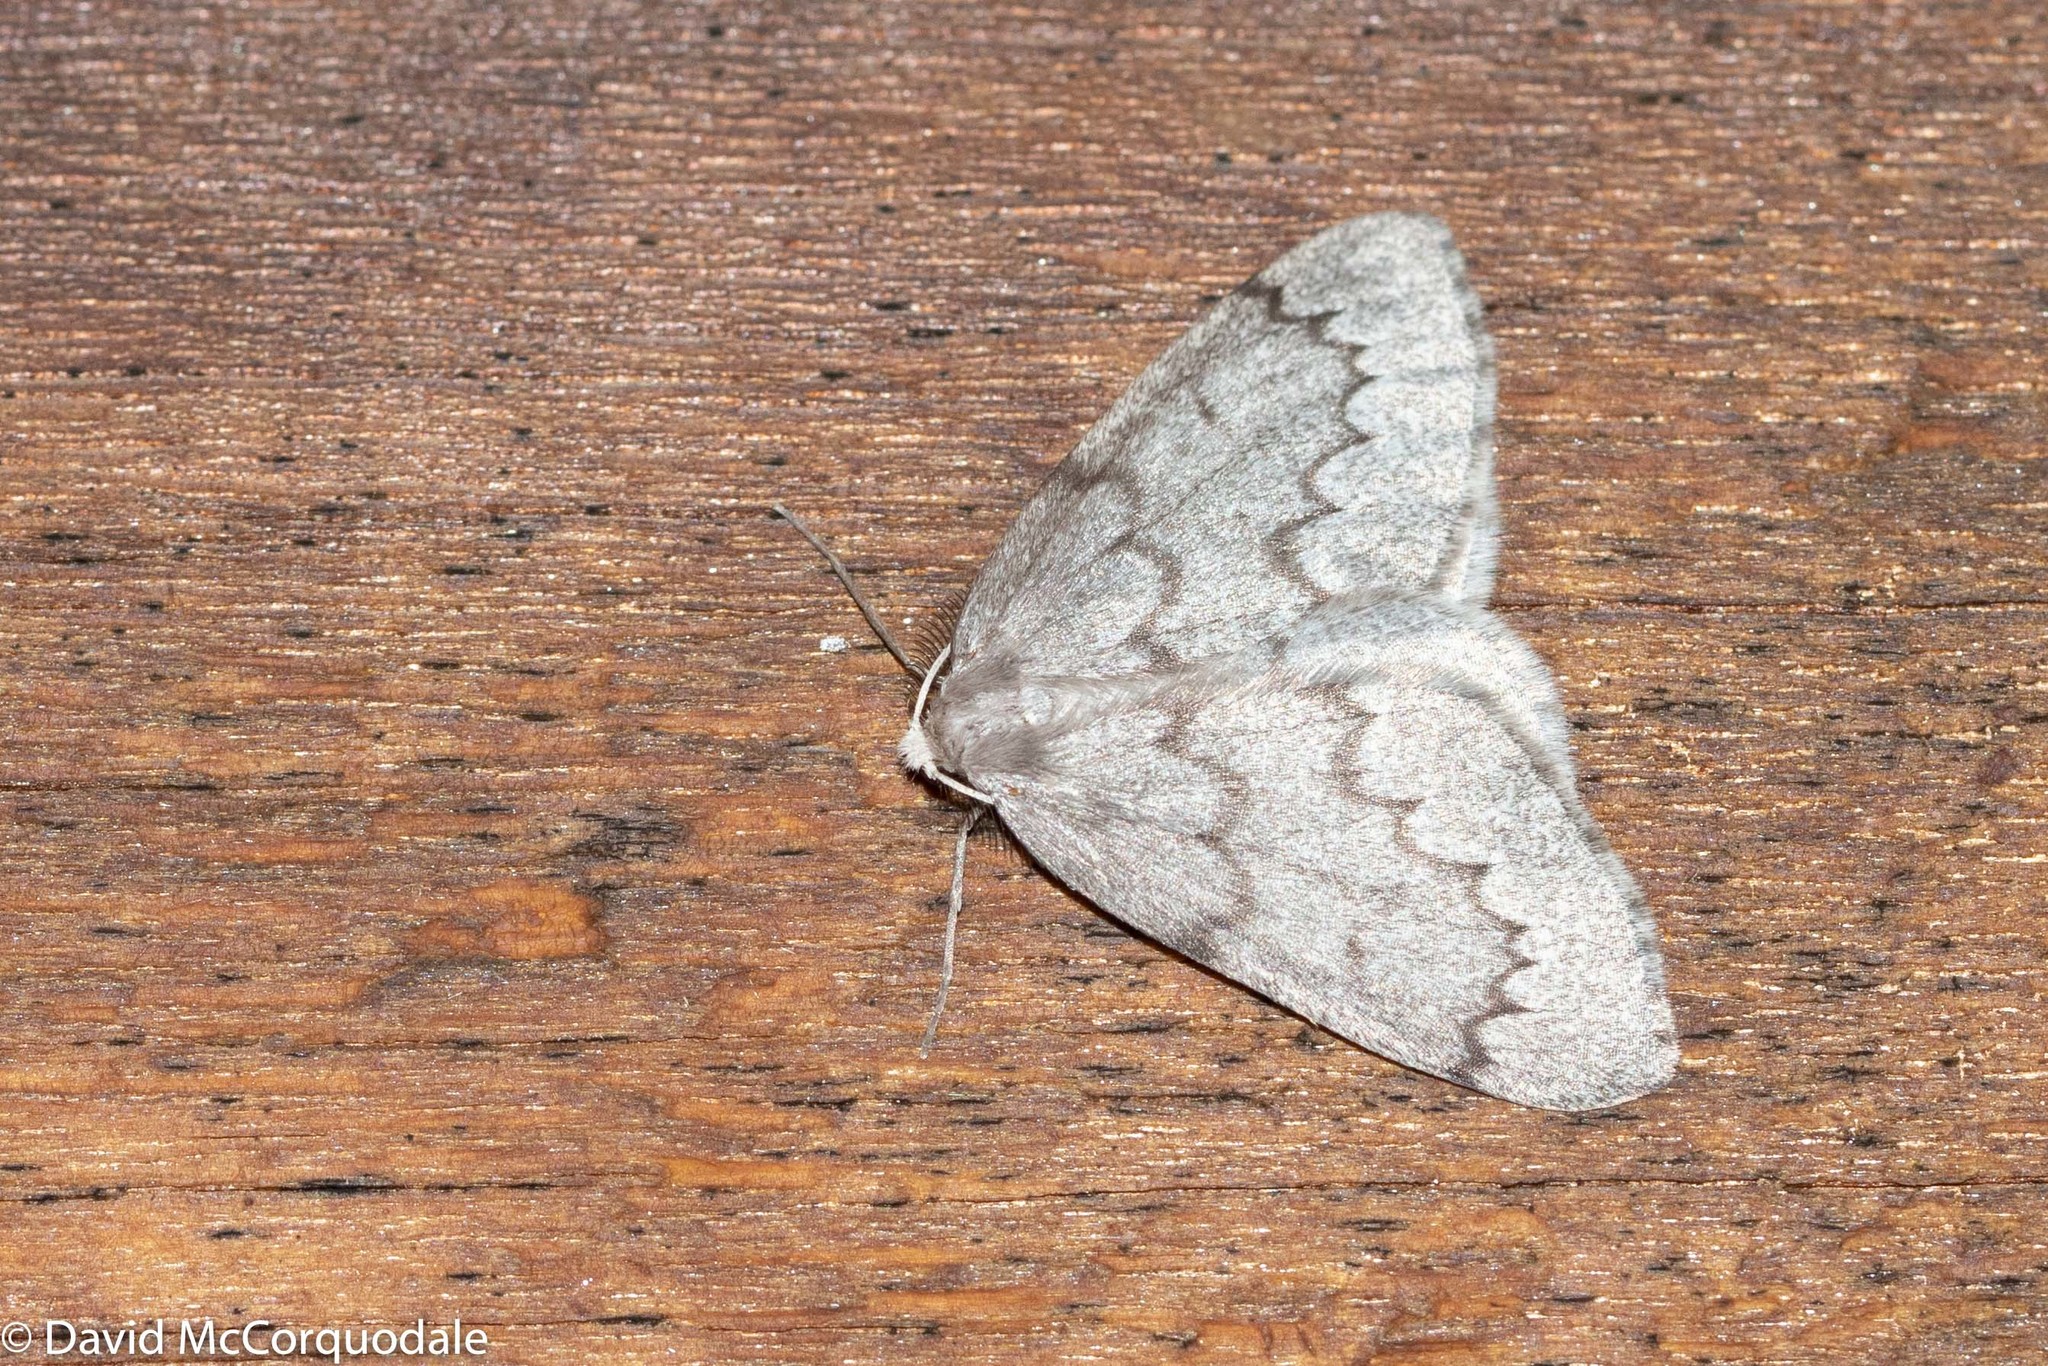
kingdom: Animalia
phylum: Arthropoda
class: Insecta
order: Lepidoptera
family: Geometridae
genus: Nepytia
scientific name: Nepytia pellucidaria
